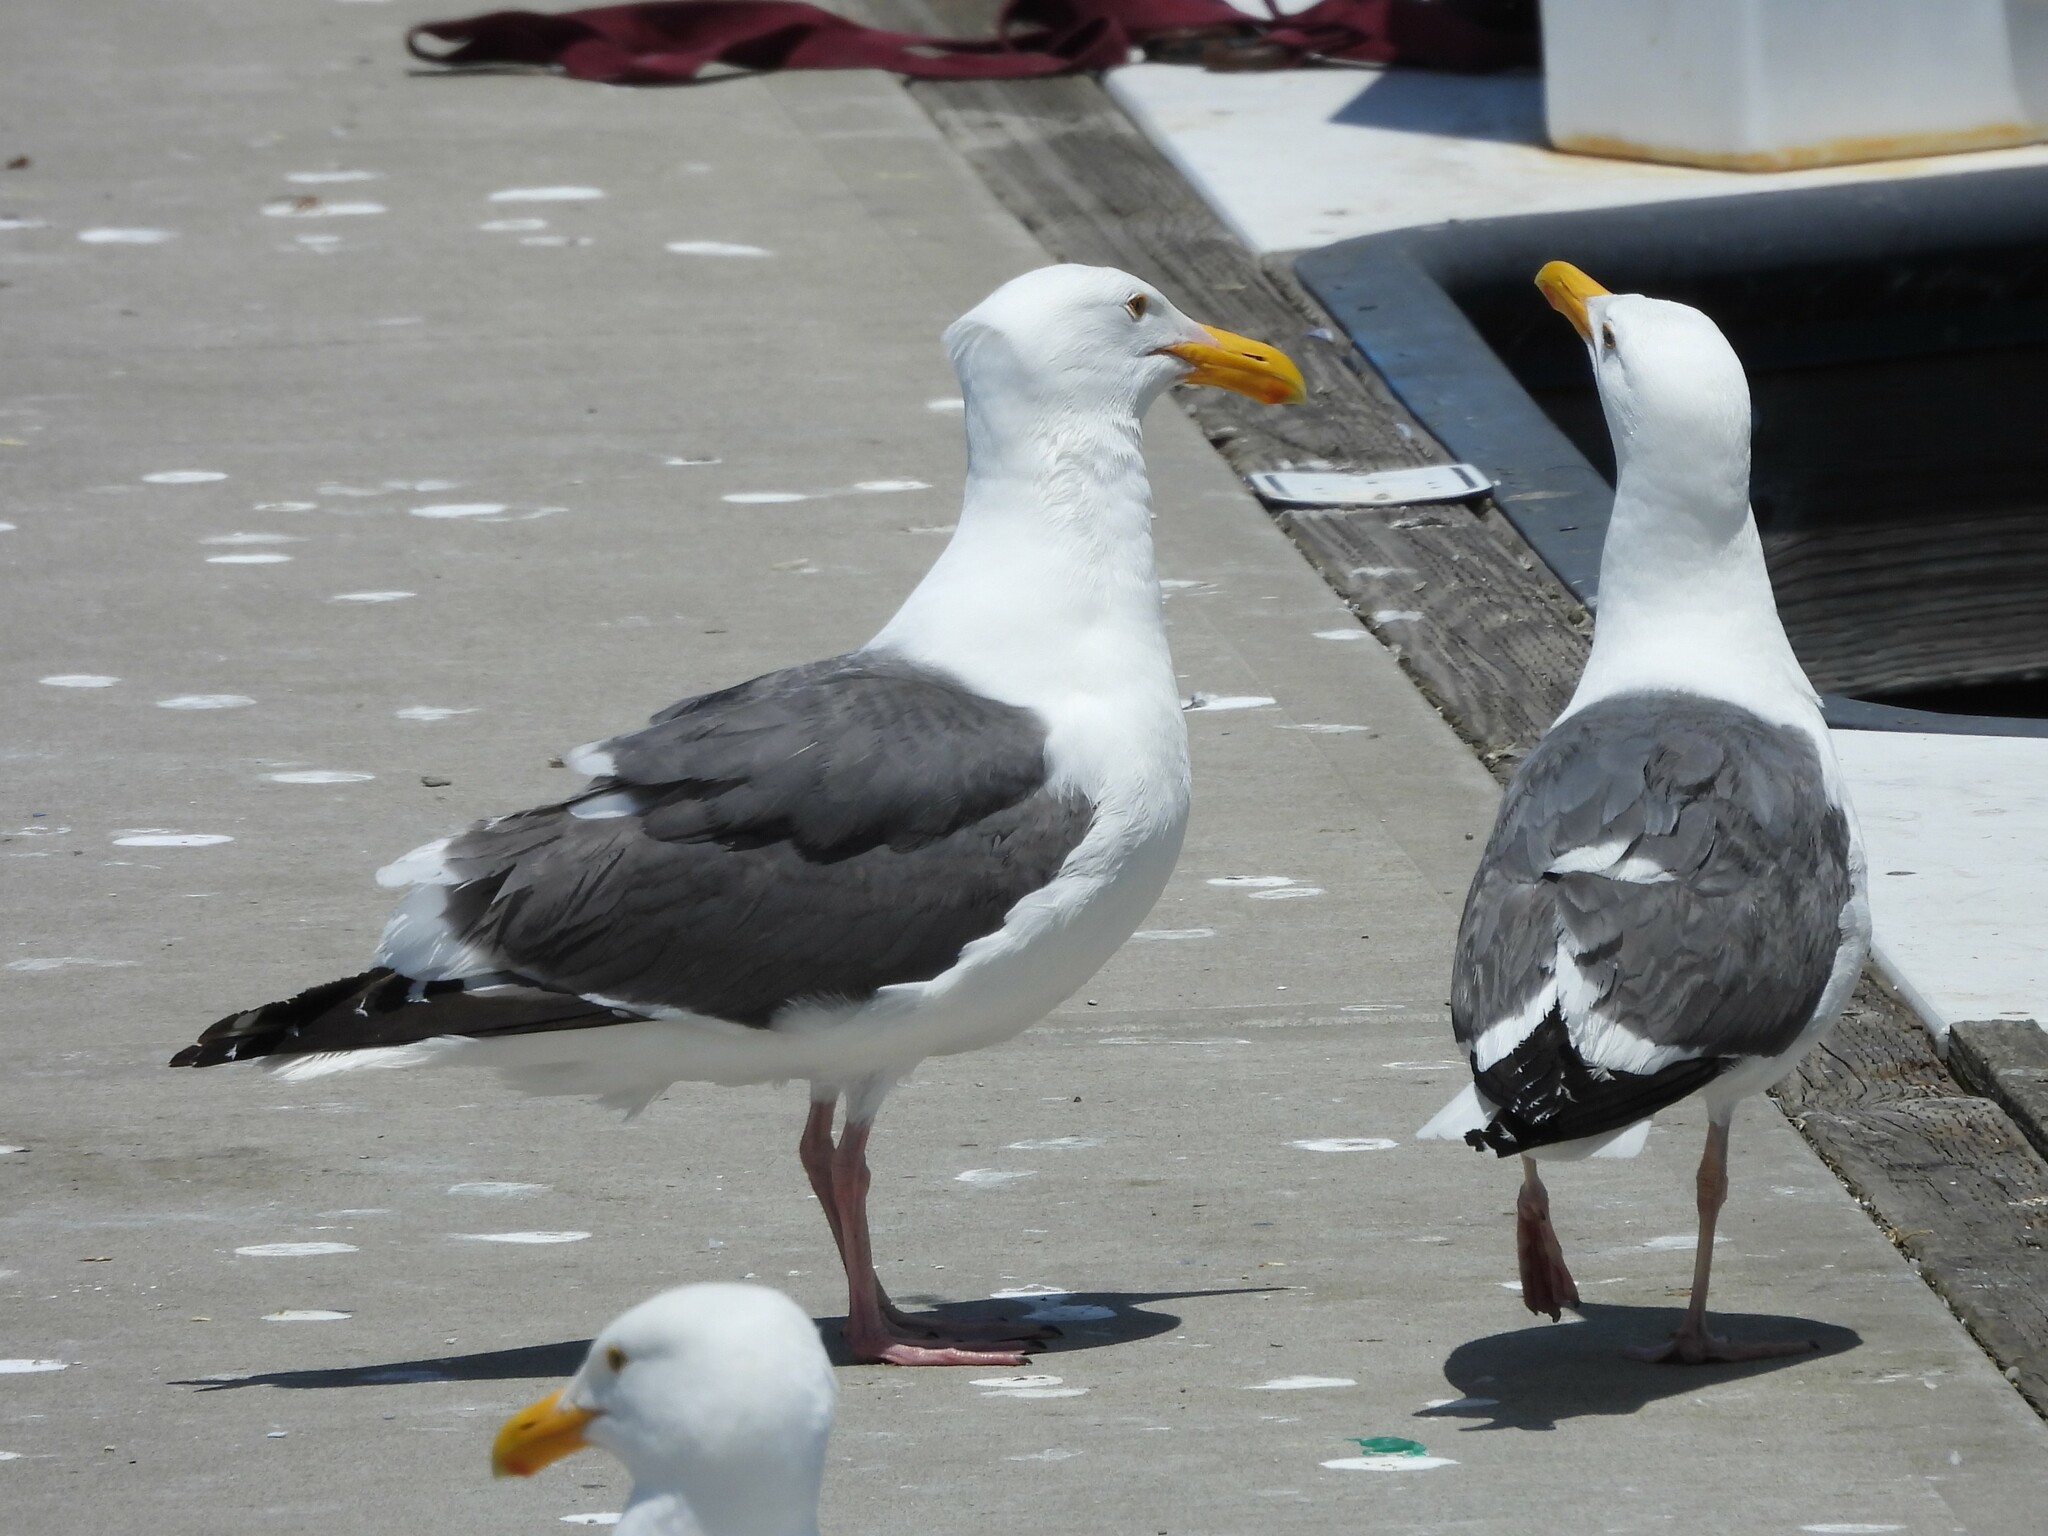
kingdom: Animalia
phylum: Chordata
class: Aves
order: Charadriiformes
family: Laridae
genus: Larus
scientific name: Larus occidentalis
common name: Western gull
